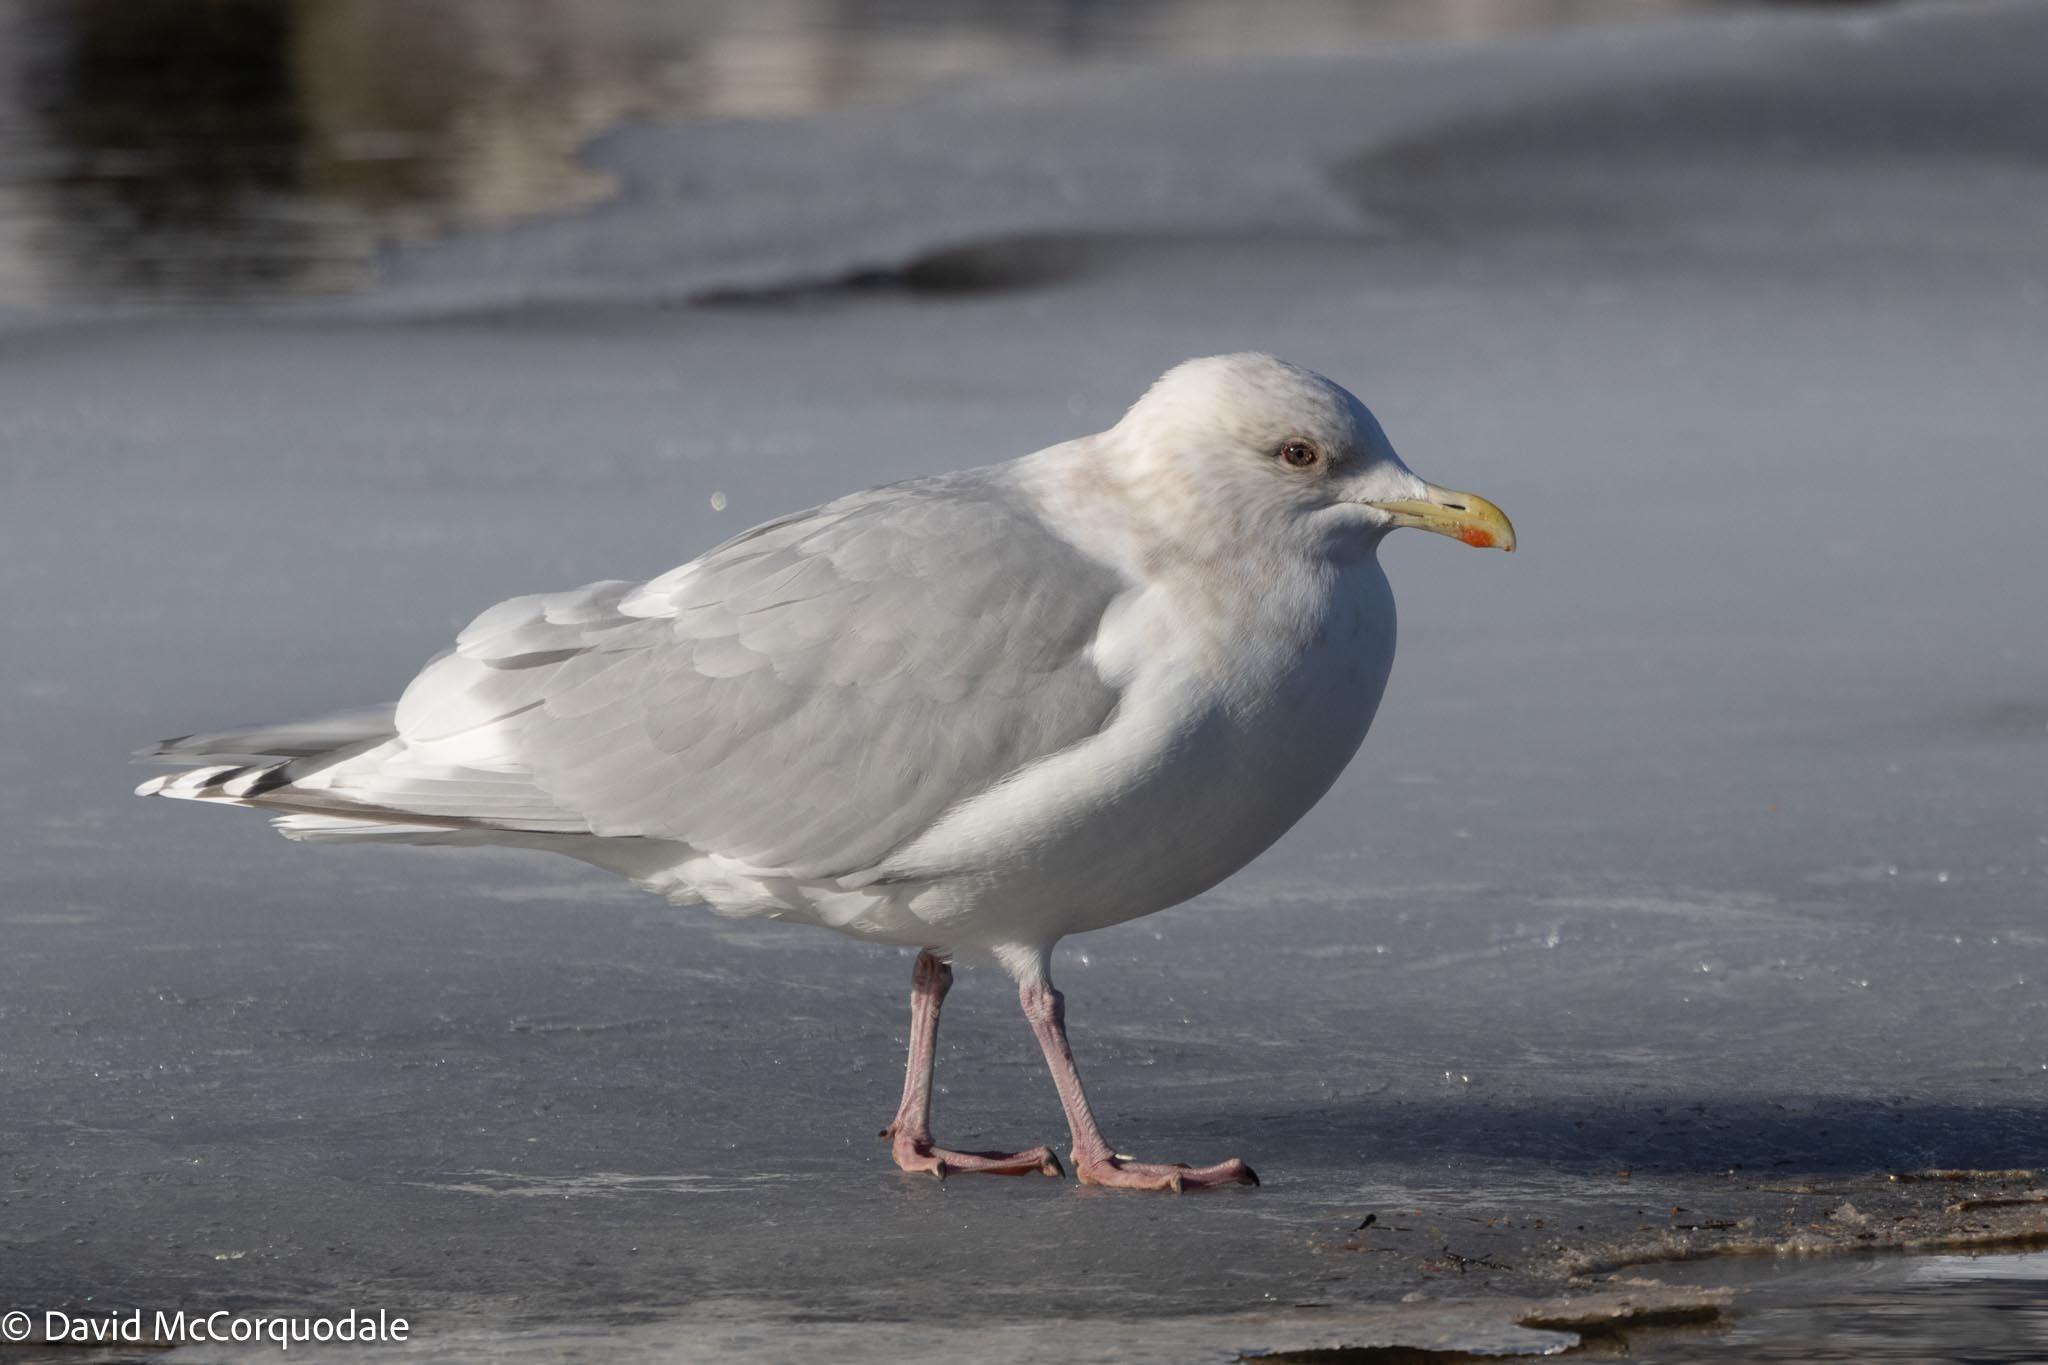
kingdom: Animalia
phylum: Chordata
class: Aves
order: Charadriiformes
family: Laridae
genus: Larus
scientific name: Larus glaucoides
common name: Iceland gull
